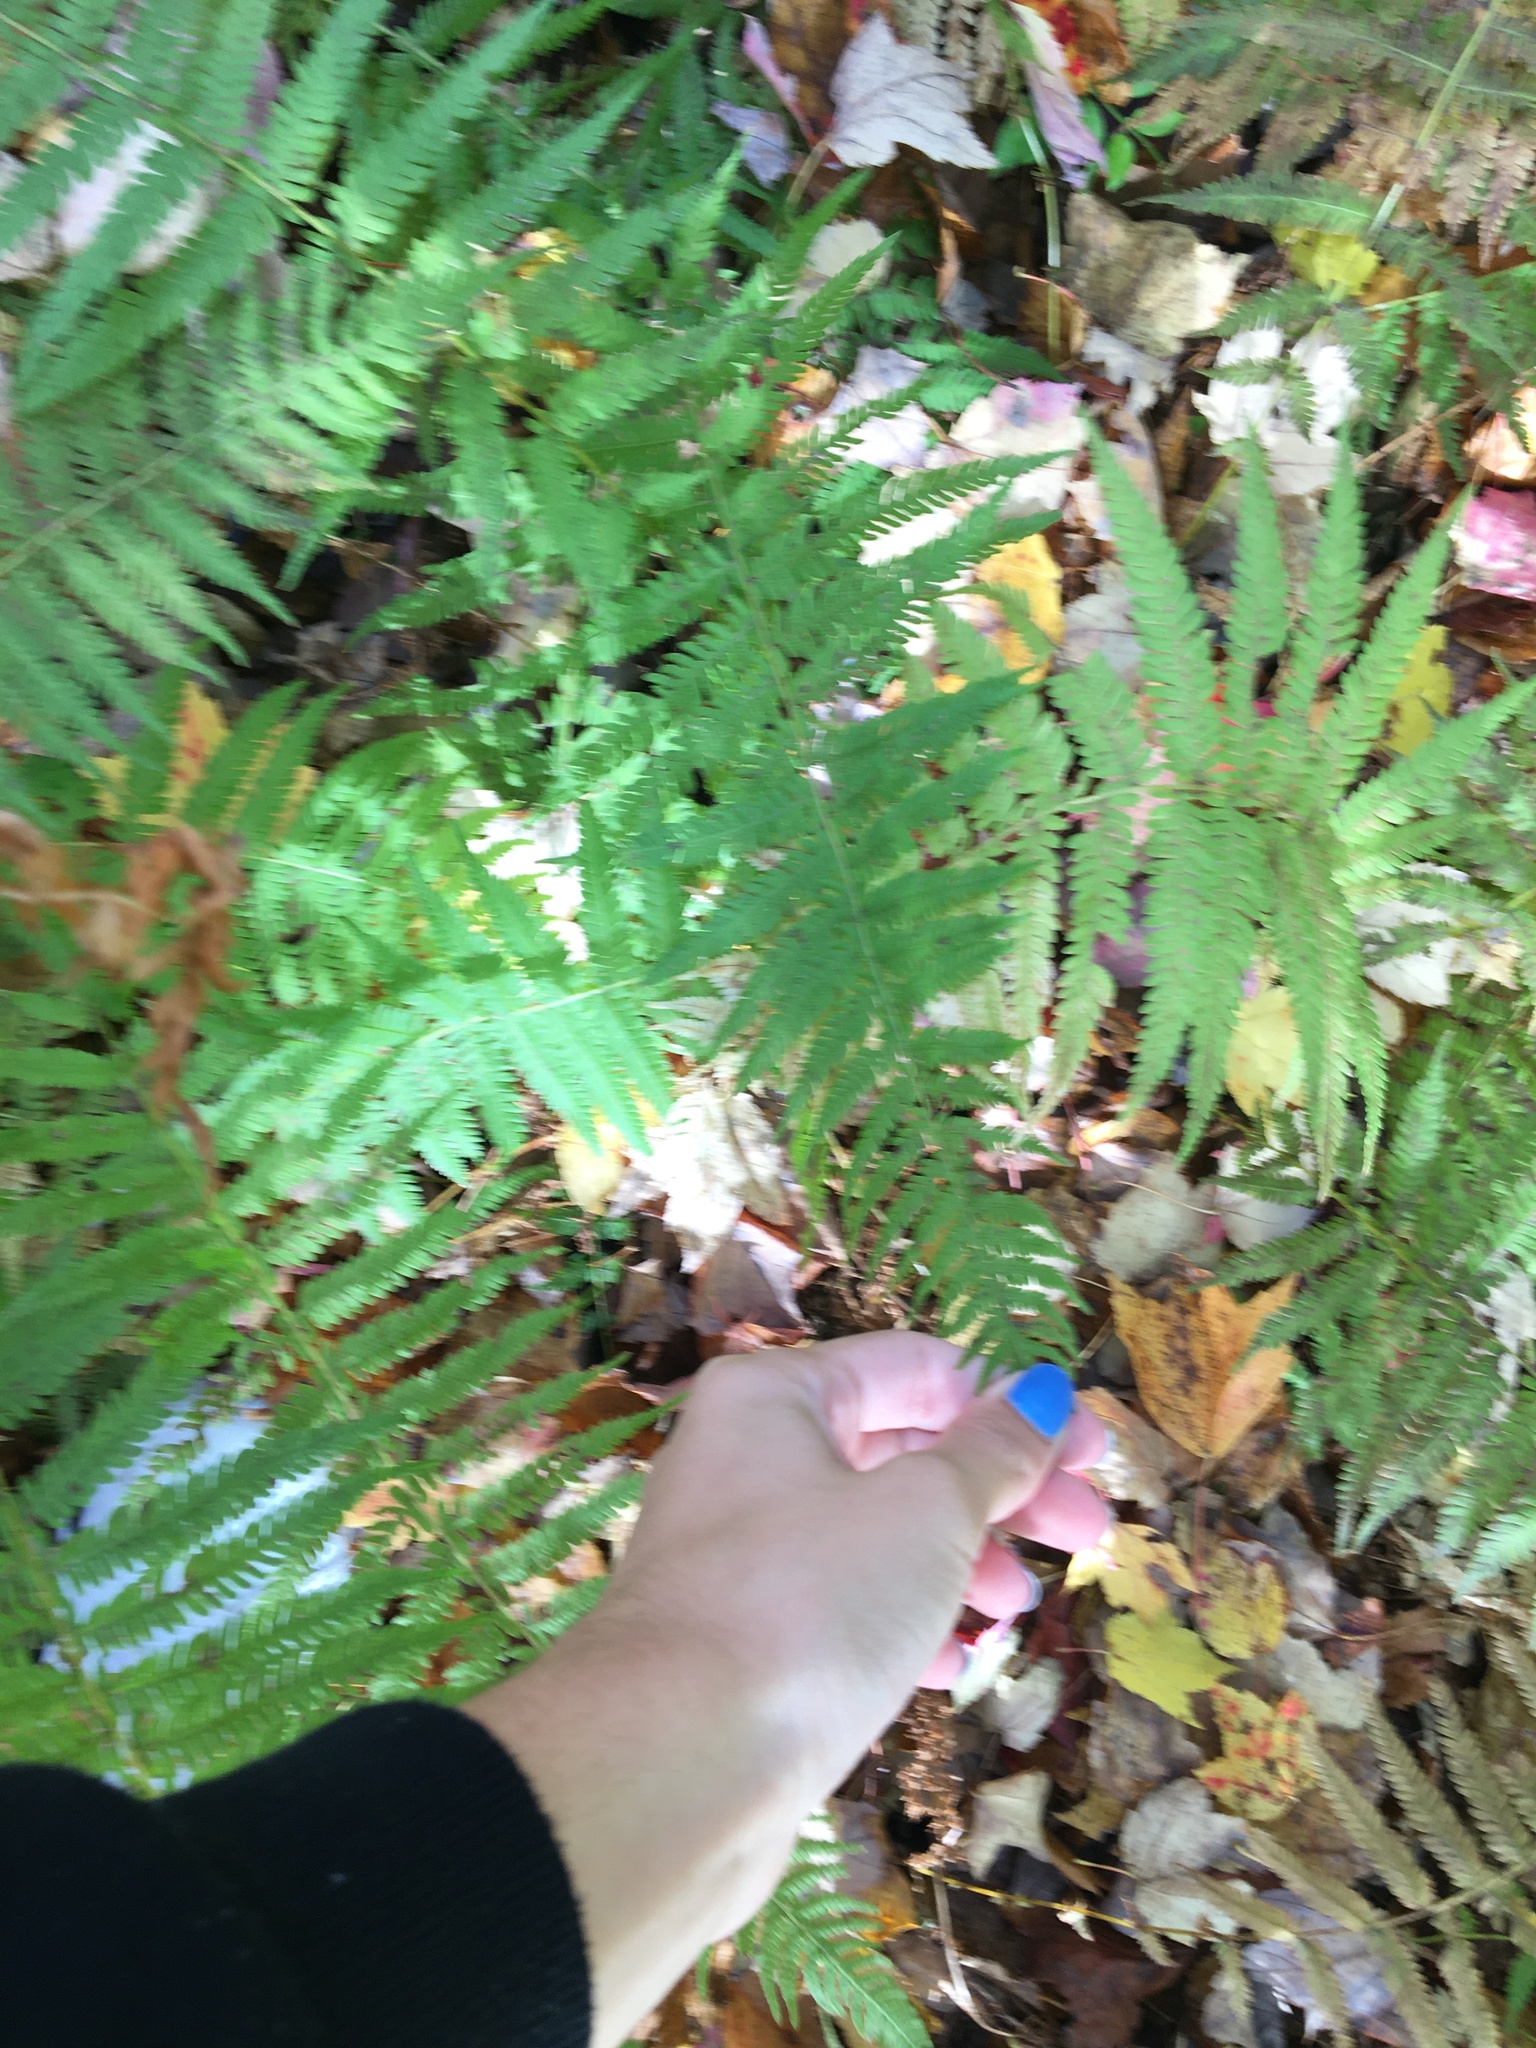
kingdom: Plantae
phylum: Tracheophyta
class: Polypodiopsida
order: Polypodiales
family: Dennstaedtiaceae
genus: Sitobolium
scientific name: Sitobolium punctilobum
